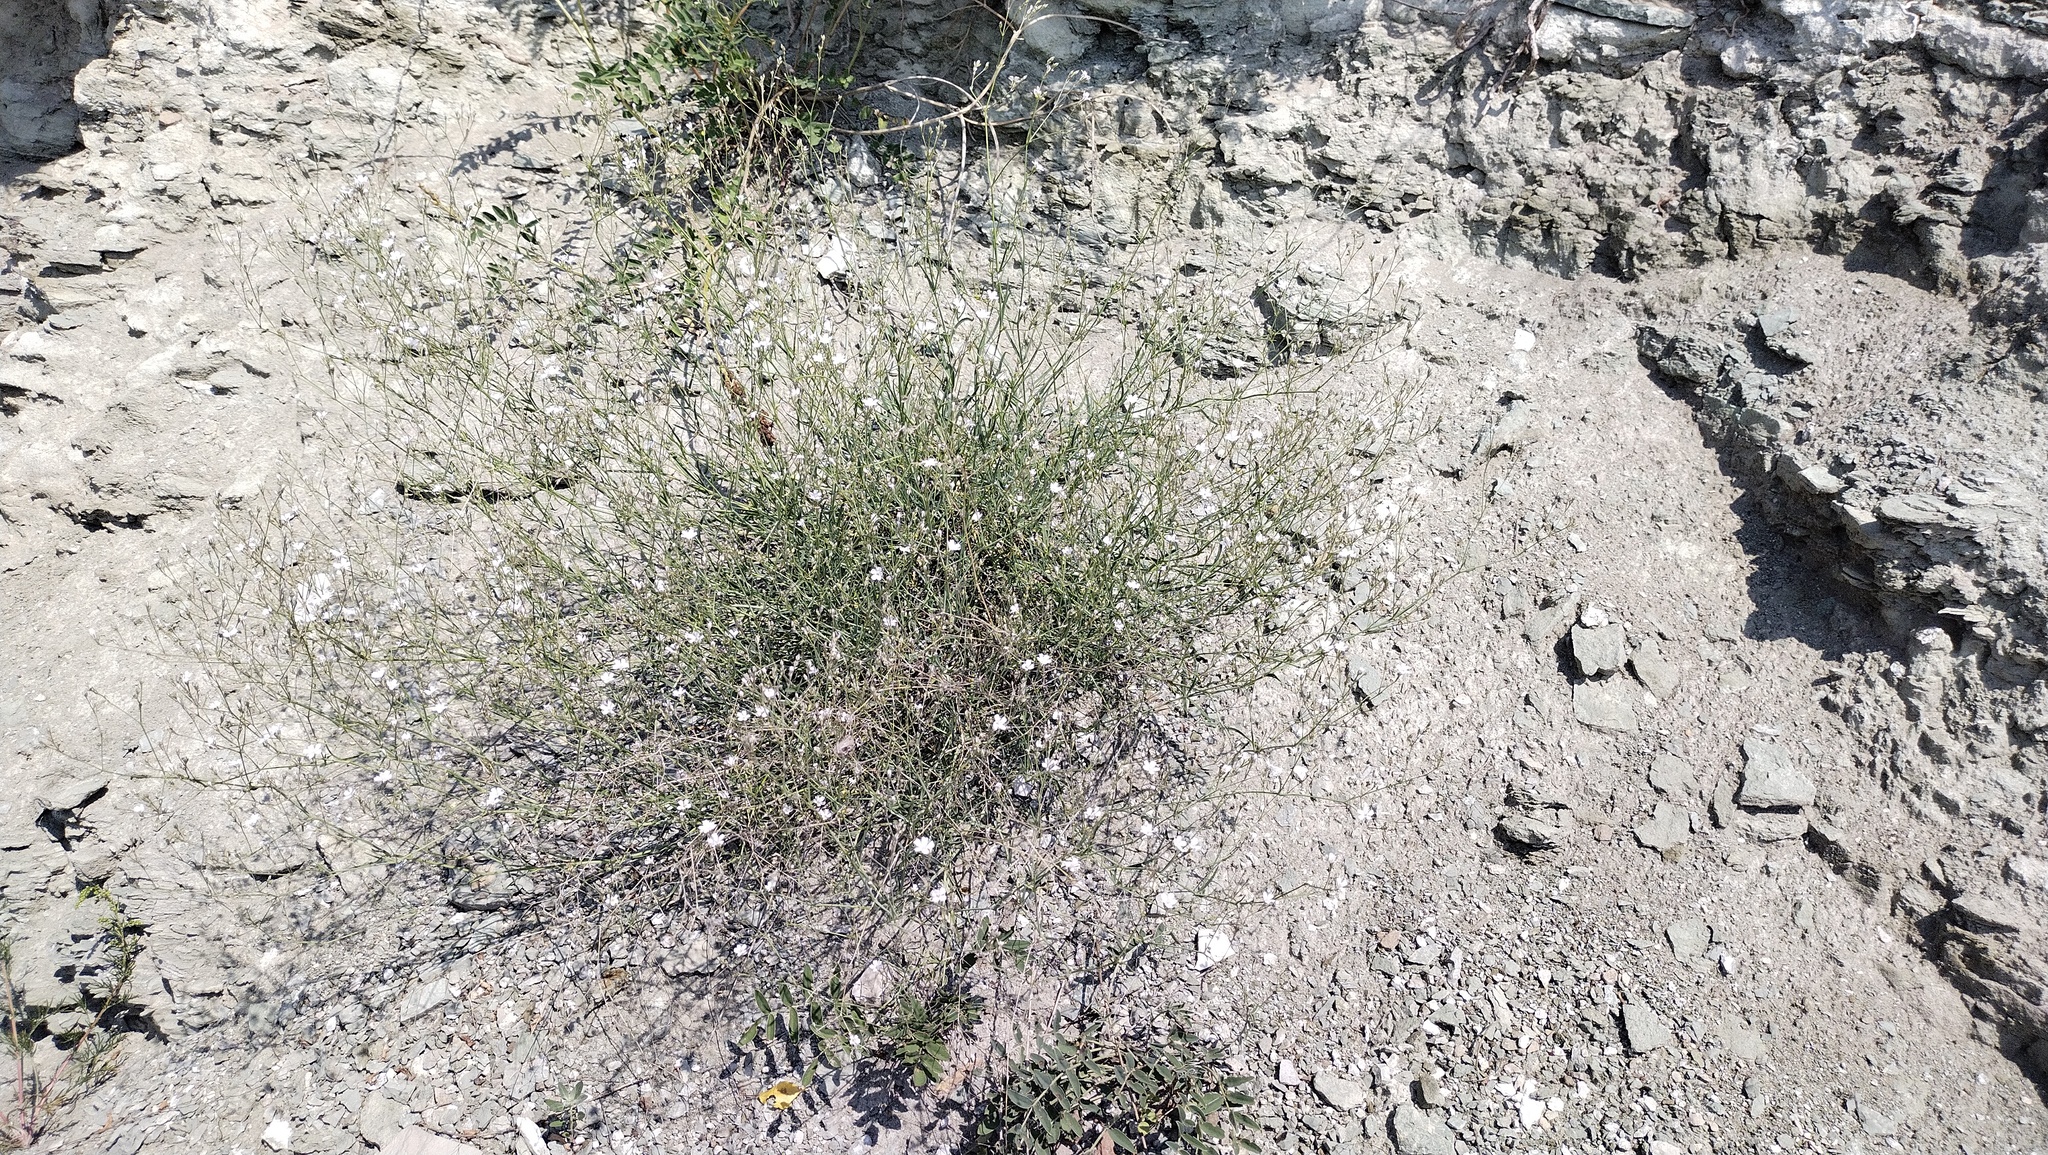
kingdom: Plantae
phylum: Tracheophyta
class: Magnoliopsida
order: Caryophyllales
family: Caryophyllaceae
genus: Gypsophila
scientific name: Gypsophila patrinii
